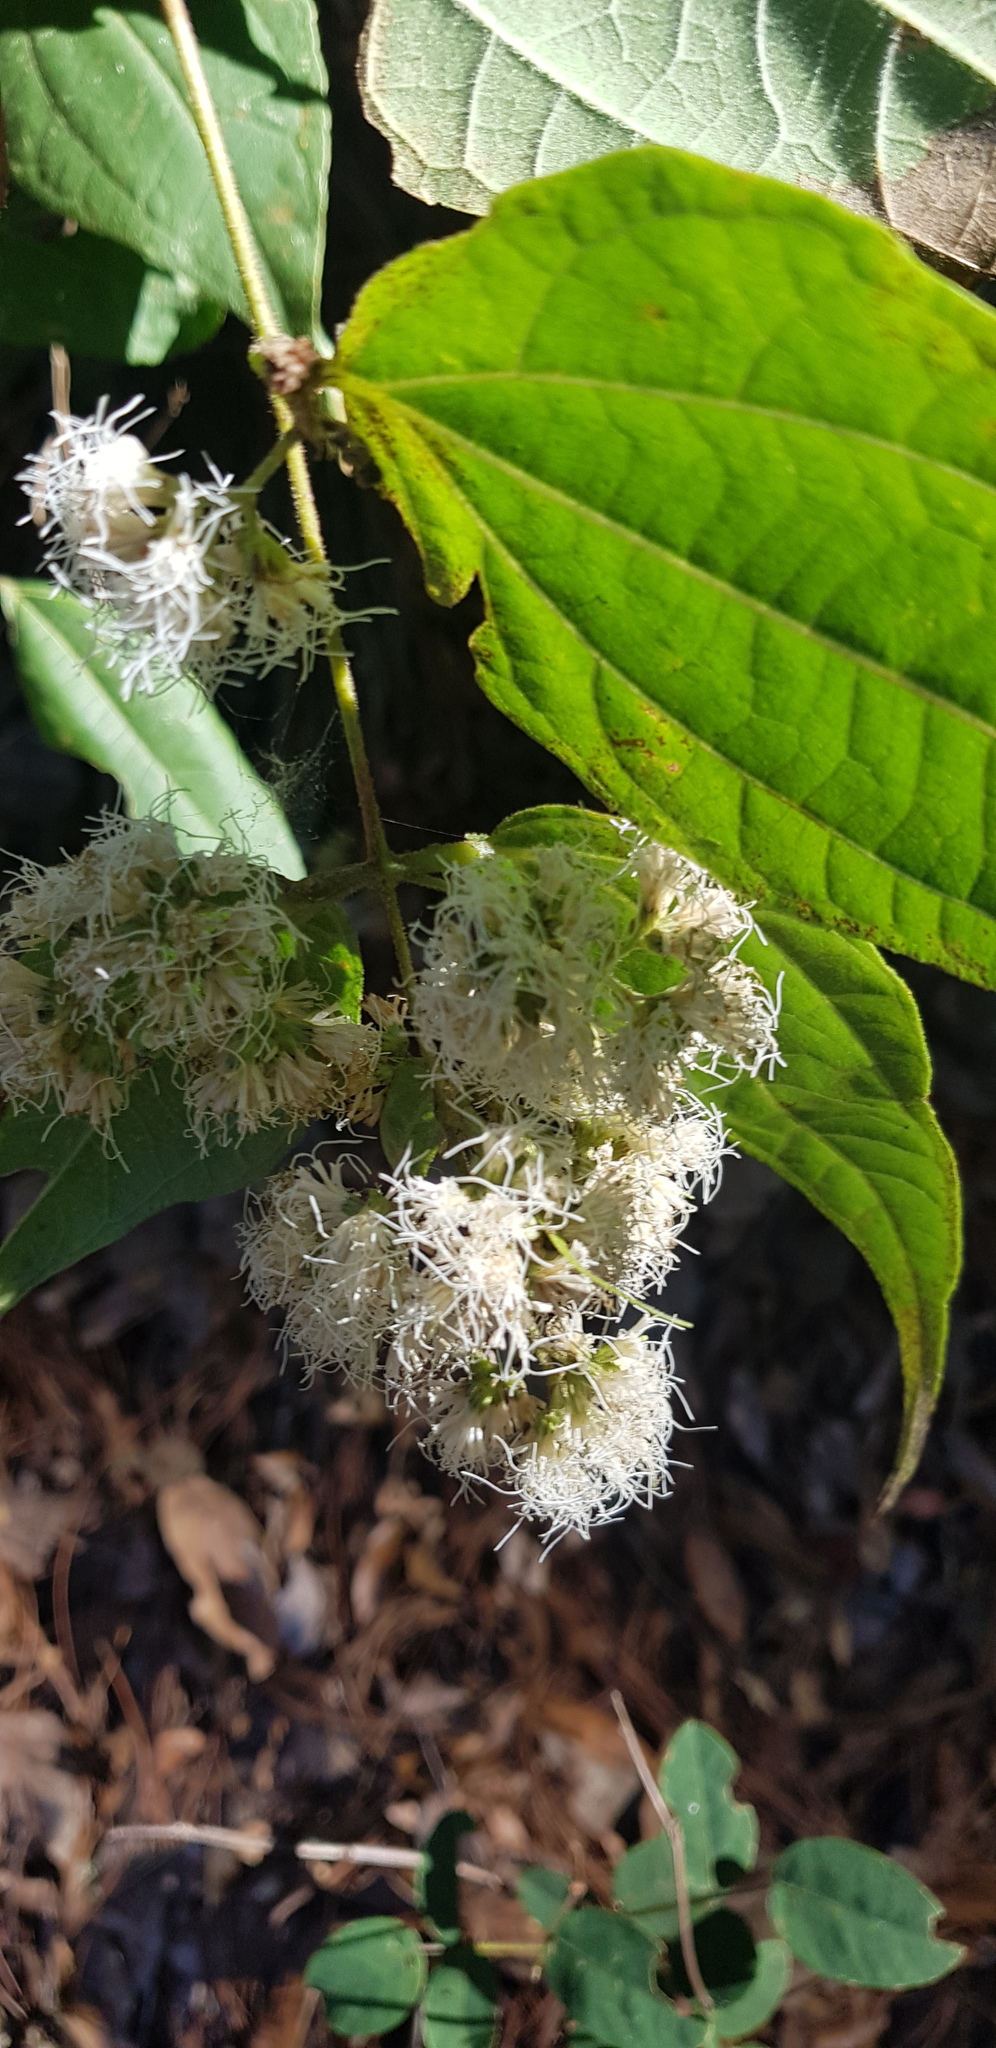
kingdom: Plantae
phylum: Tracheophyta
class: Magnoliopsida
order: Asterales
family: Asteraceae
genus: Ageratina
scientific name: Ageratina areolaris
